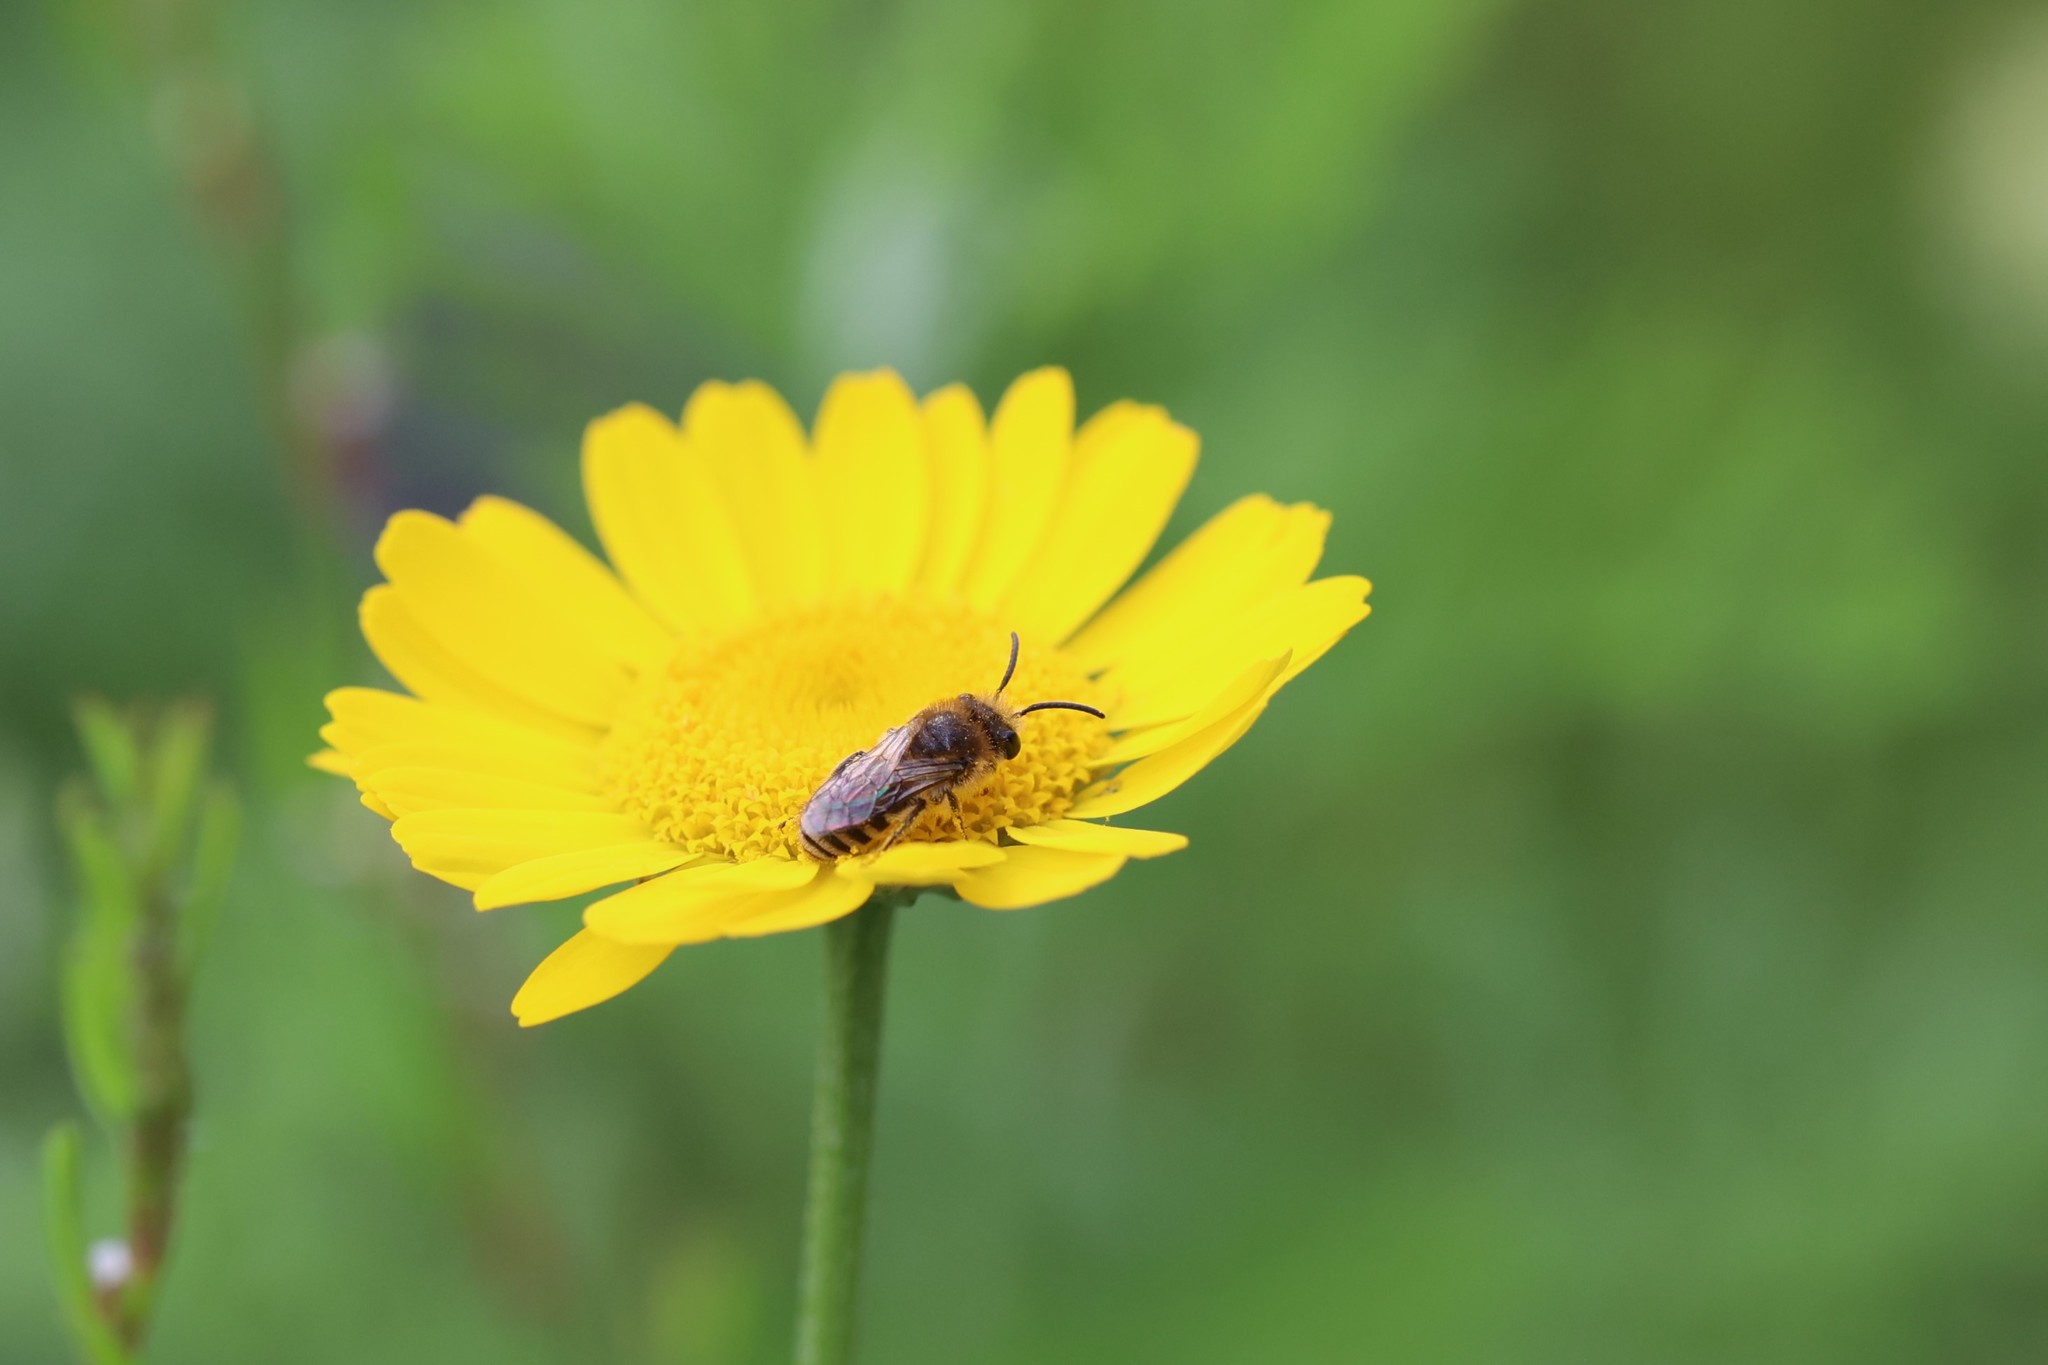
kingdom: Animalia
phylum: Arthropoda
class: Insecta
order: Hymenoptera
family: Colletidae
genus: Colletes
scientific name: Colletes
